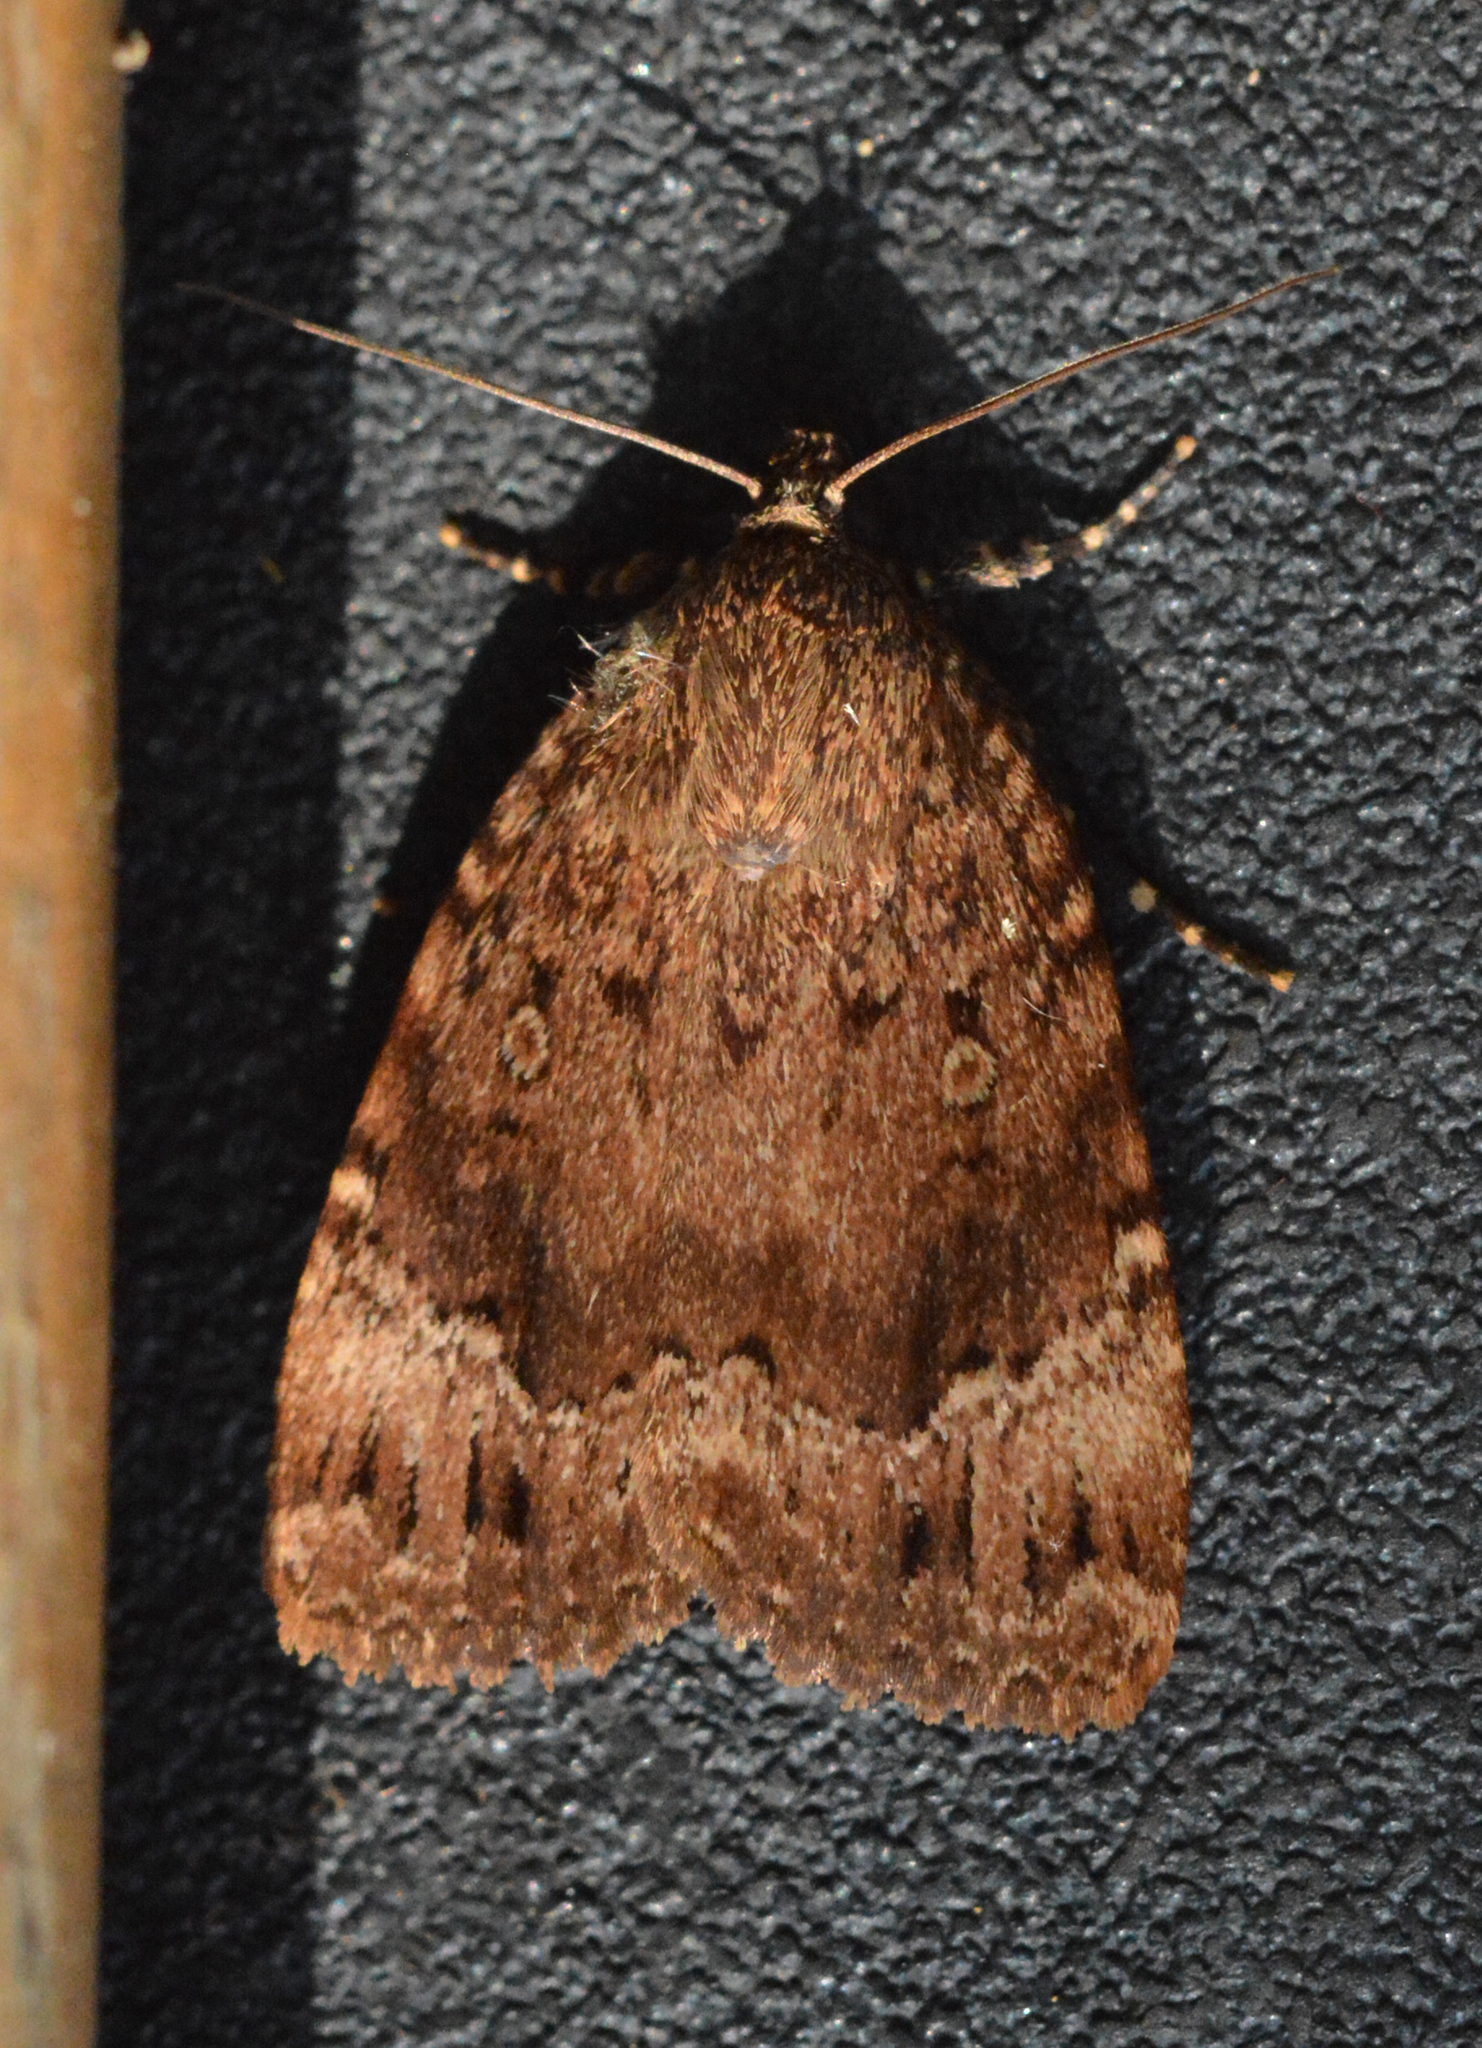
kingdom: Animalia
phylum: Arthropoda
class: Insecta
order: Lepidoptera
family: Noctuidae
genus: Amphipyra
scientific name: Amphipyra pyramidoides
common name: American copper underwing
